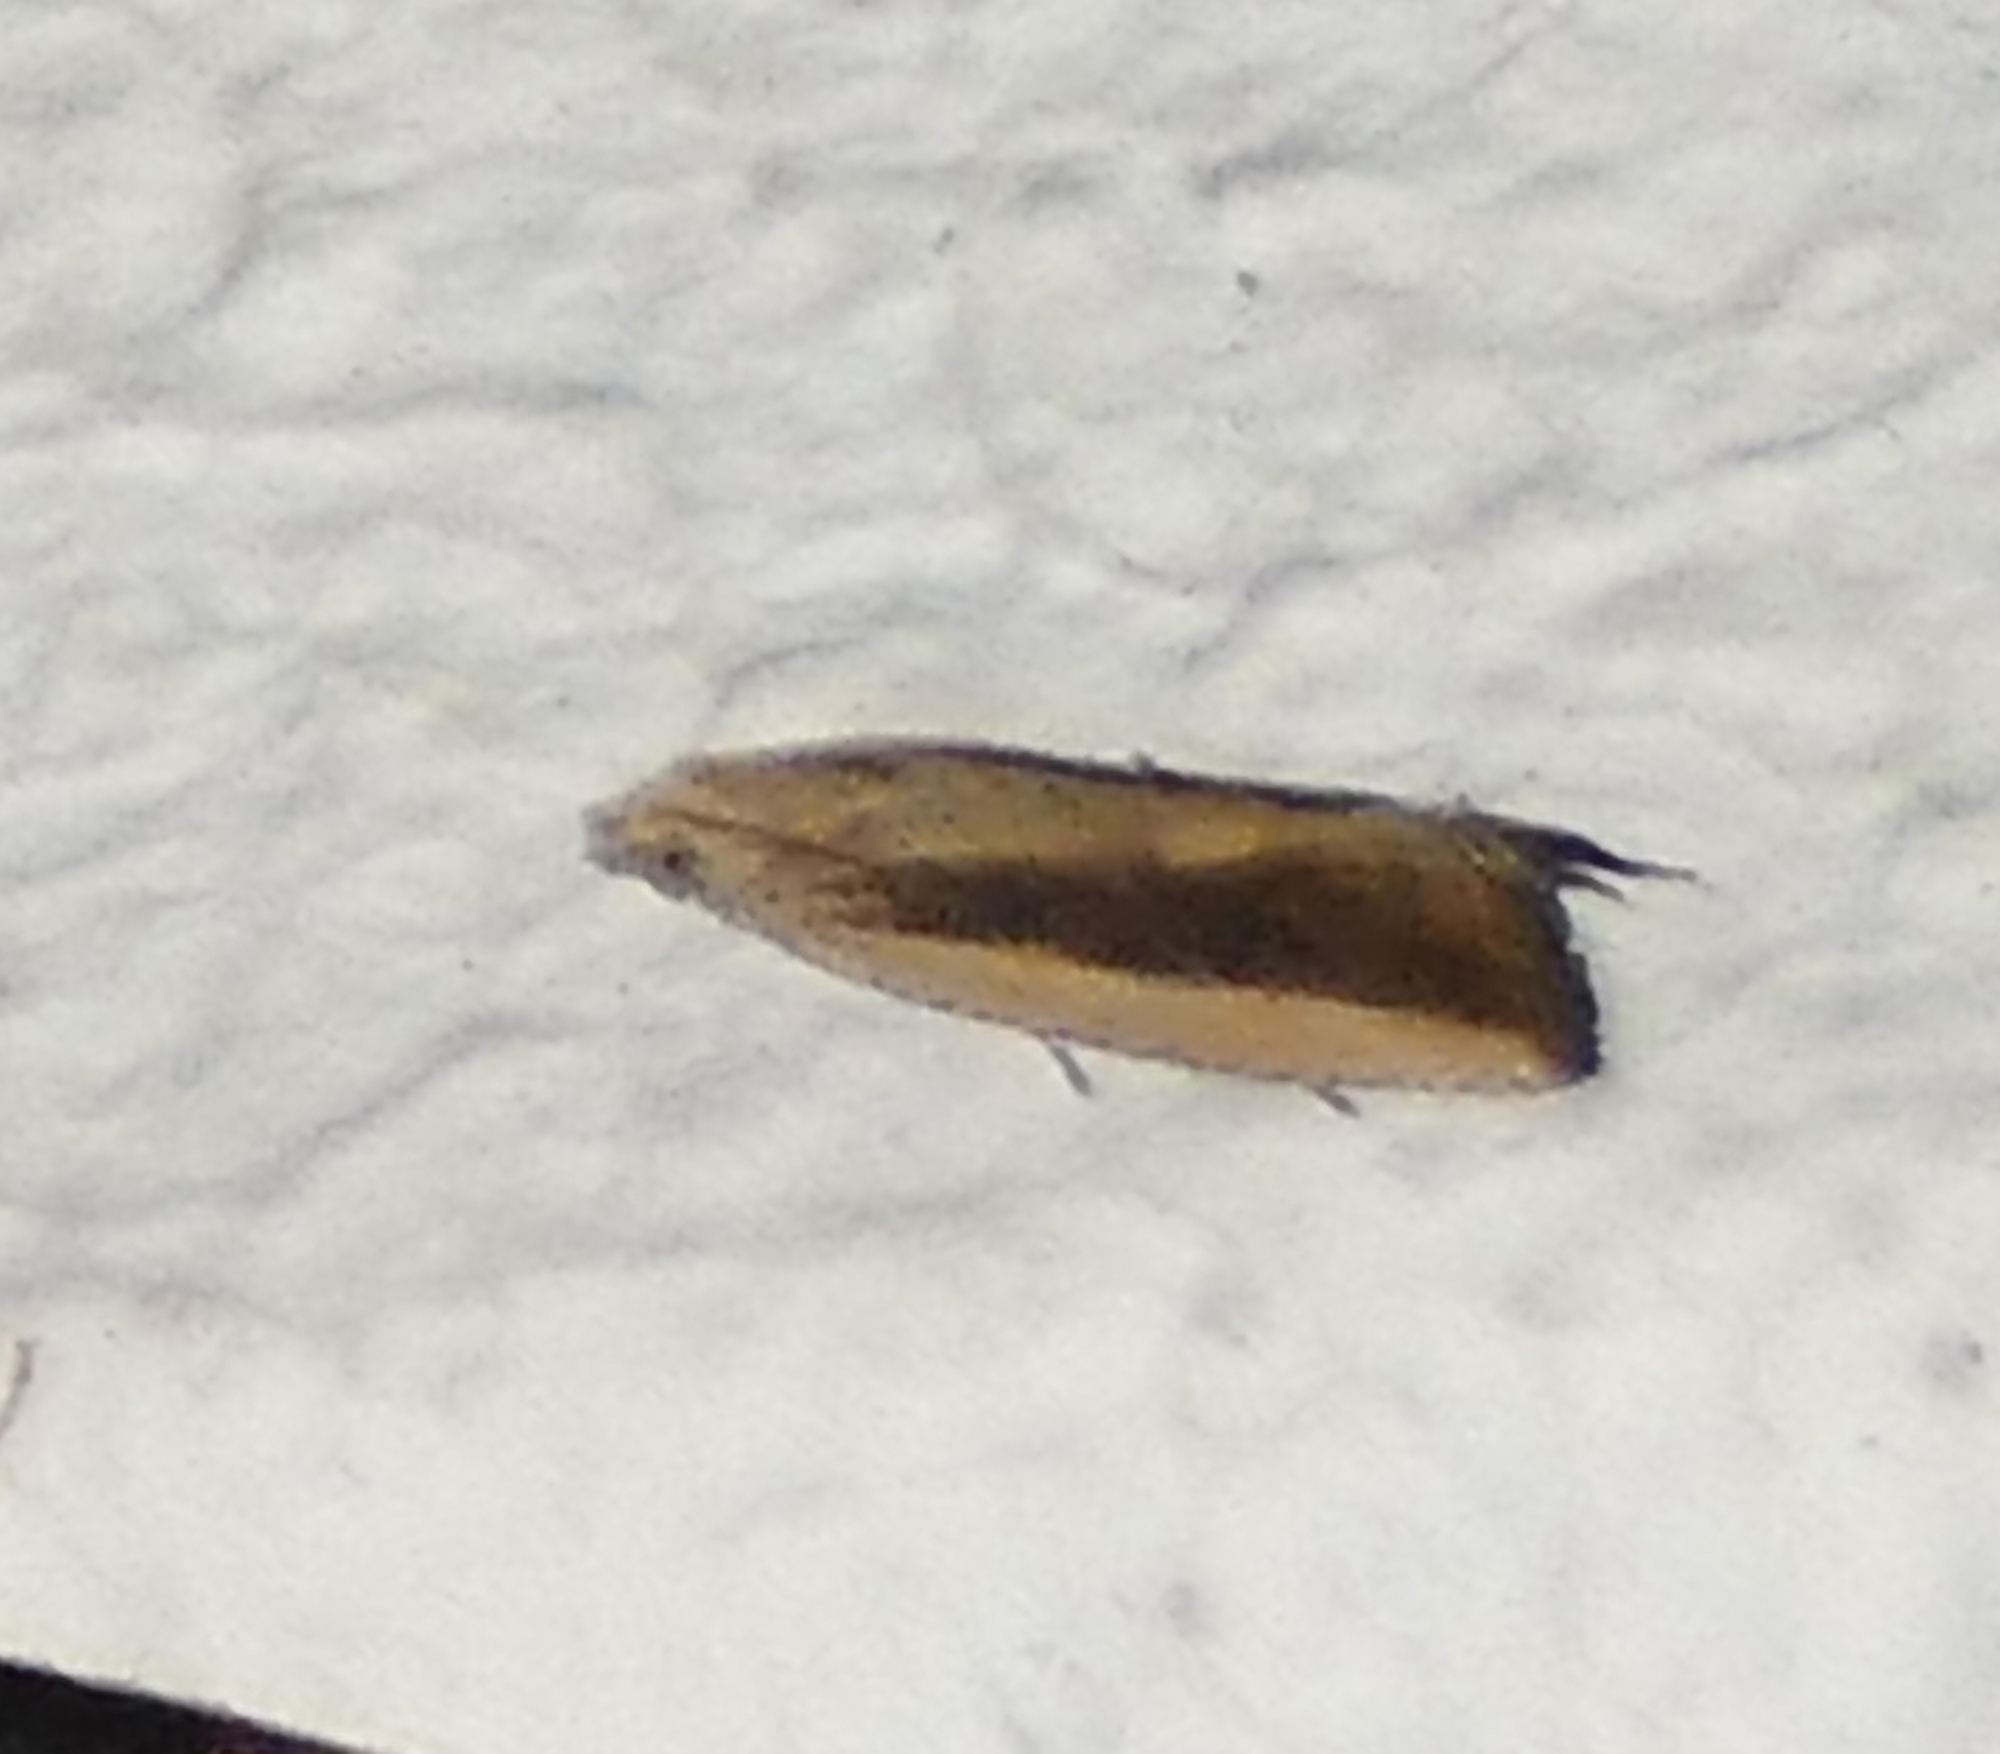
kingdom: Animalia
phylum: Arthropoda
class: Insecta
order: Lepidoptera
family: Tortricidae
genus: Bactra
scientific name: Bactra priapeia
